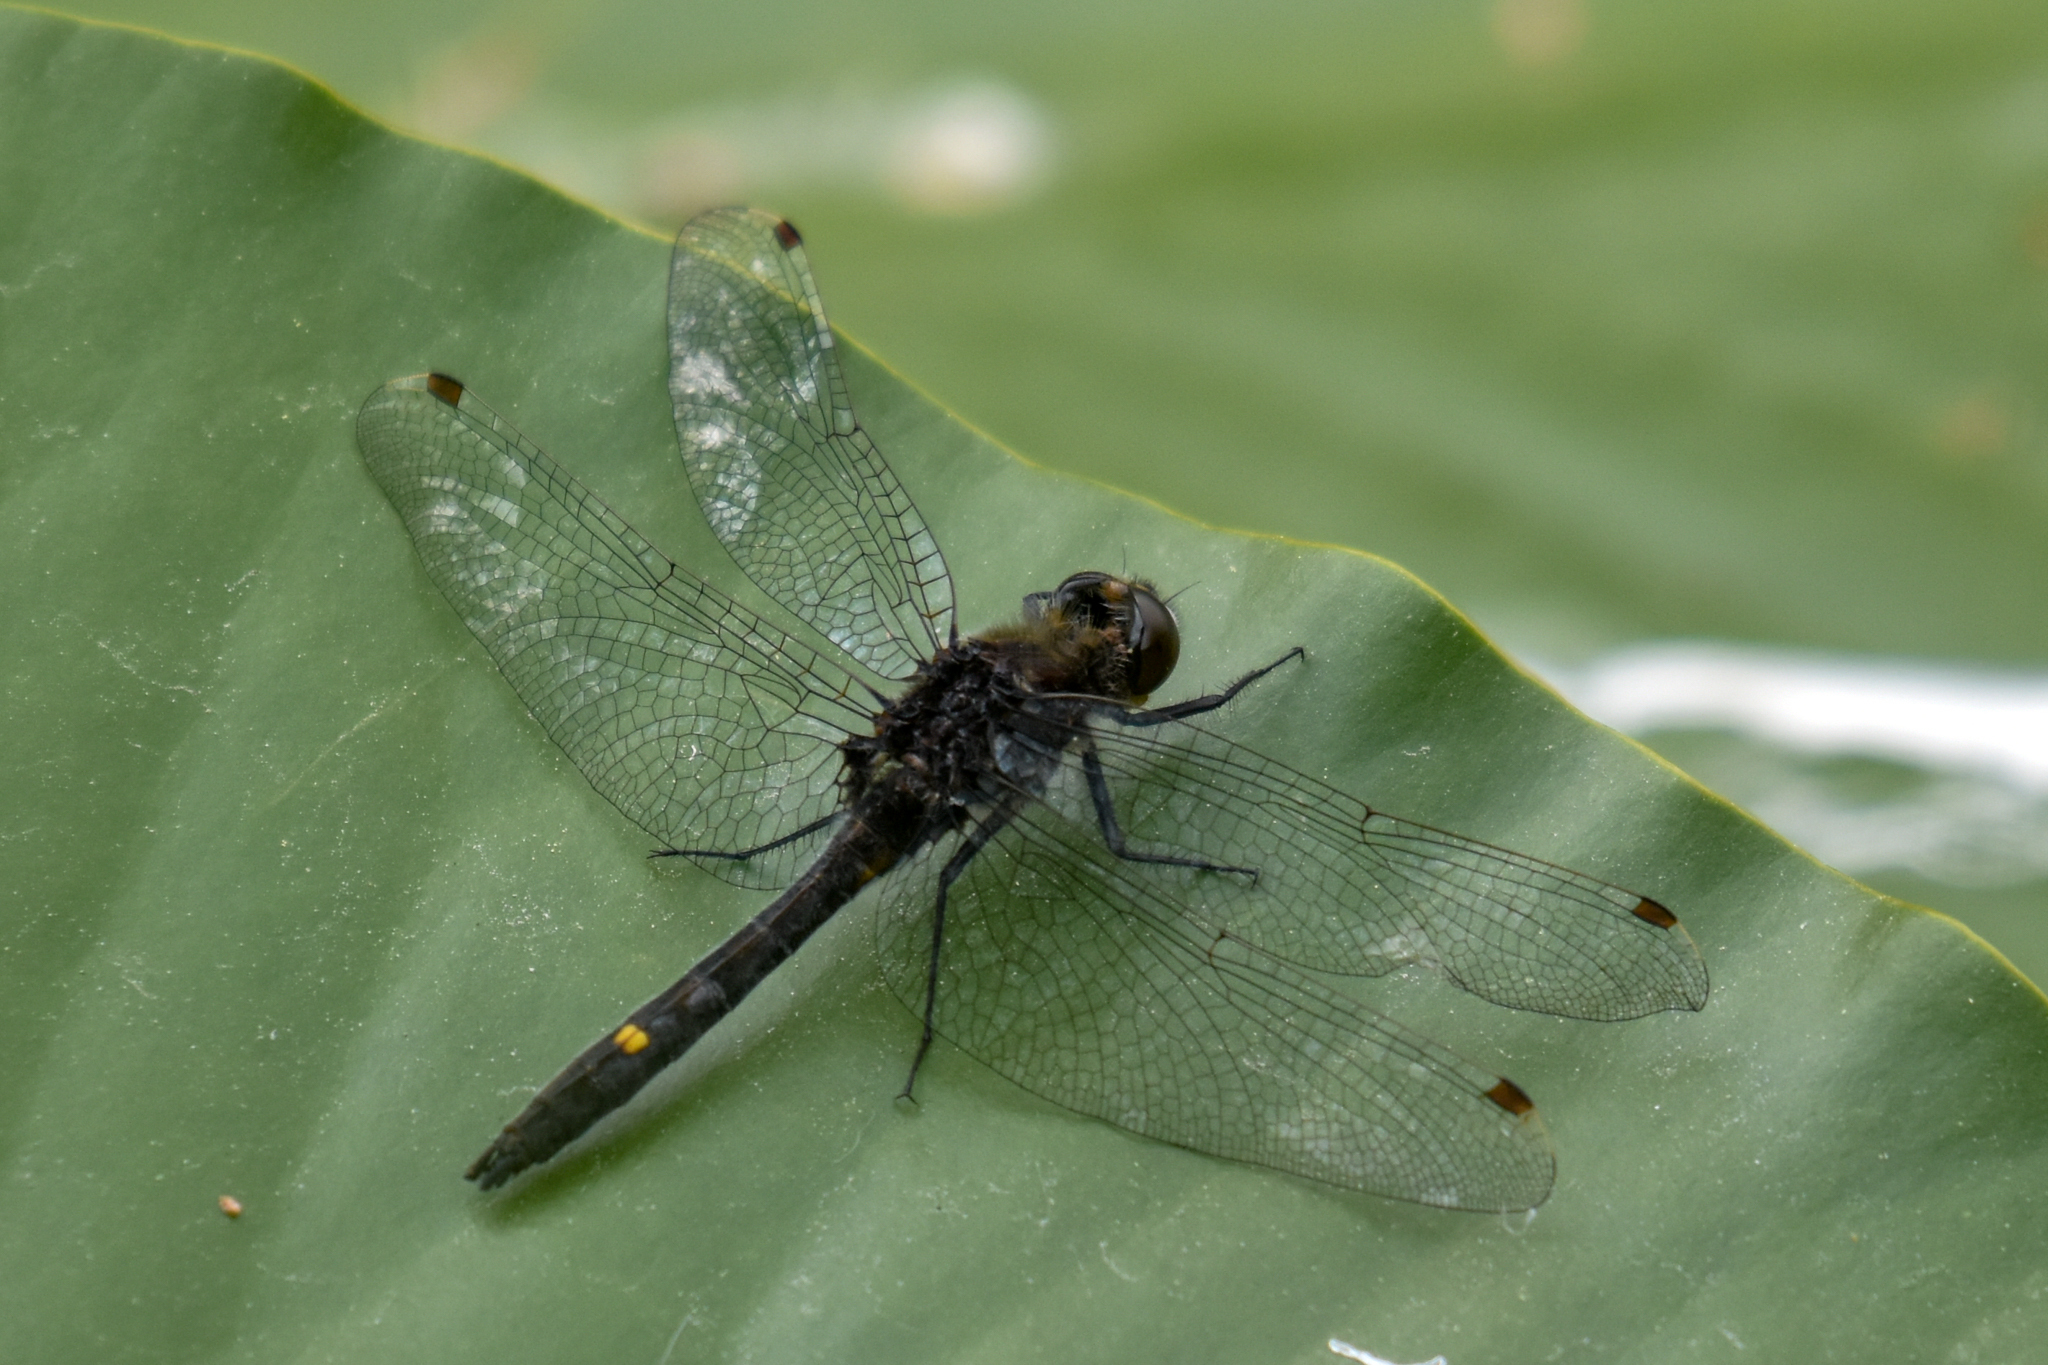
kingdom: Animalia
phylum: Arthropoda
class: Insecta
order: Odonata
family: Libellulidae
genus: Leucorrhinia
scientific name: Leucorrhinia intacta
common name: Dot-tailed whiteface
